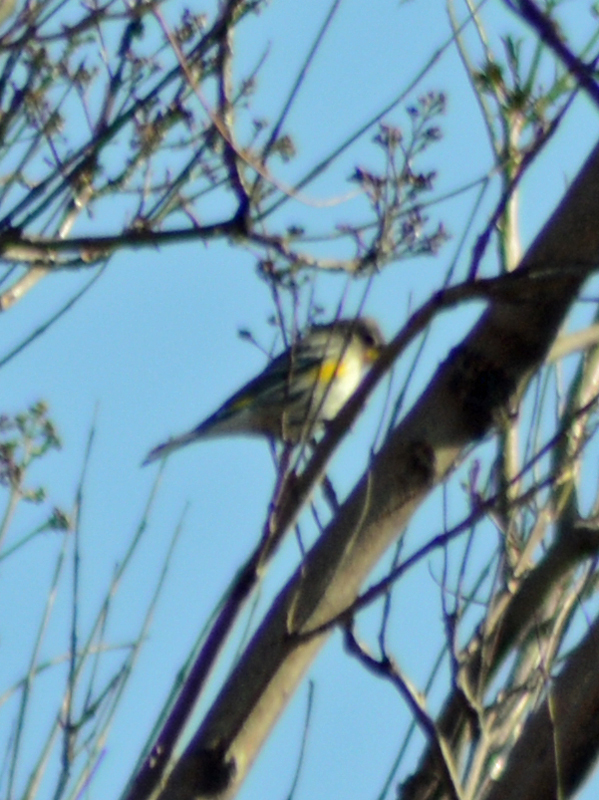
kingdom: Animalia
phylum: Chordata
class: Aves
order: Passeriformes
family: Parulidae
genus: Setophaga
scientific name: Setophaga coronata
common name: Myrtle warbler
